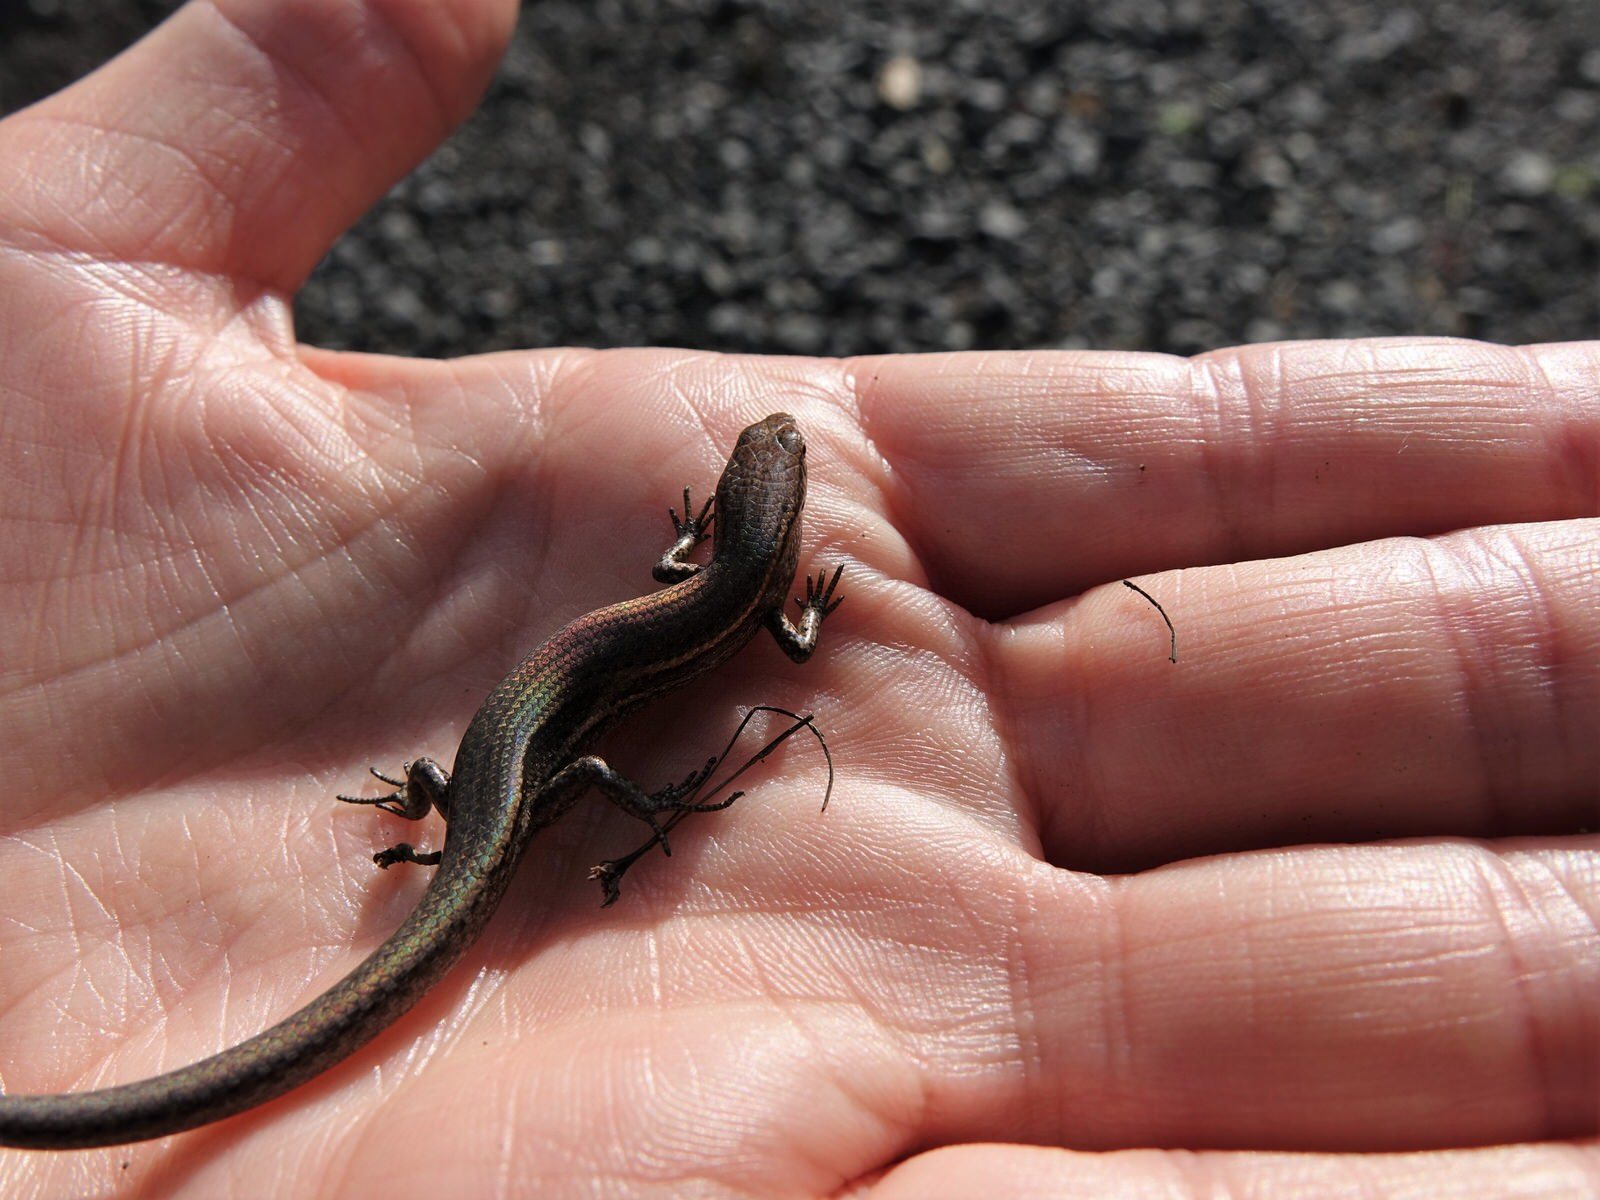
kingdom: Animalia
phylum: Chordata
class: Squamata
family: Scincidae
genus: Lampropholis
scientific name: Lampropholis delicata
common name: Plague skink
